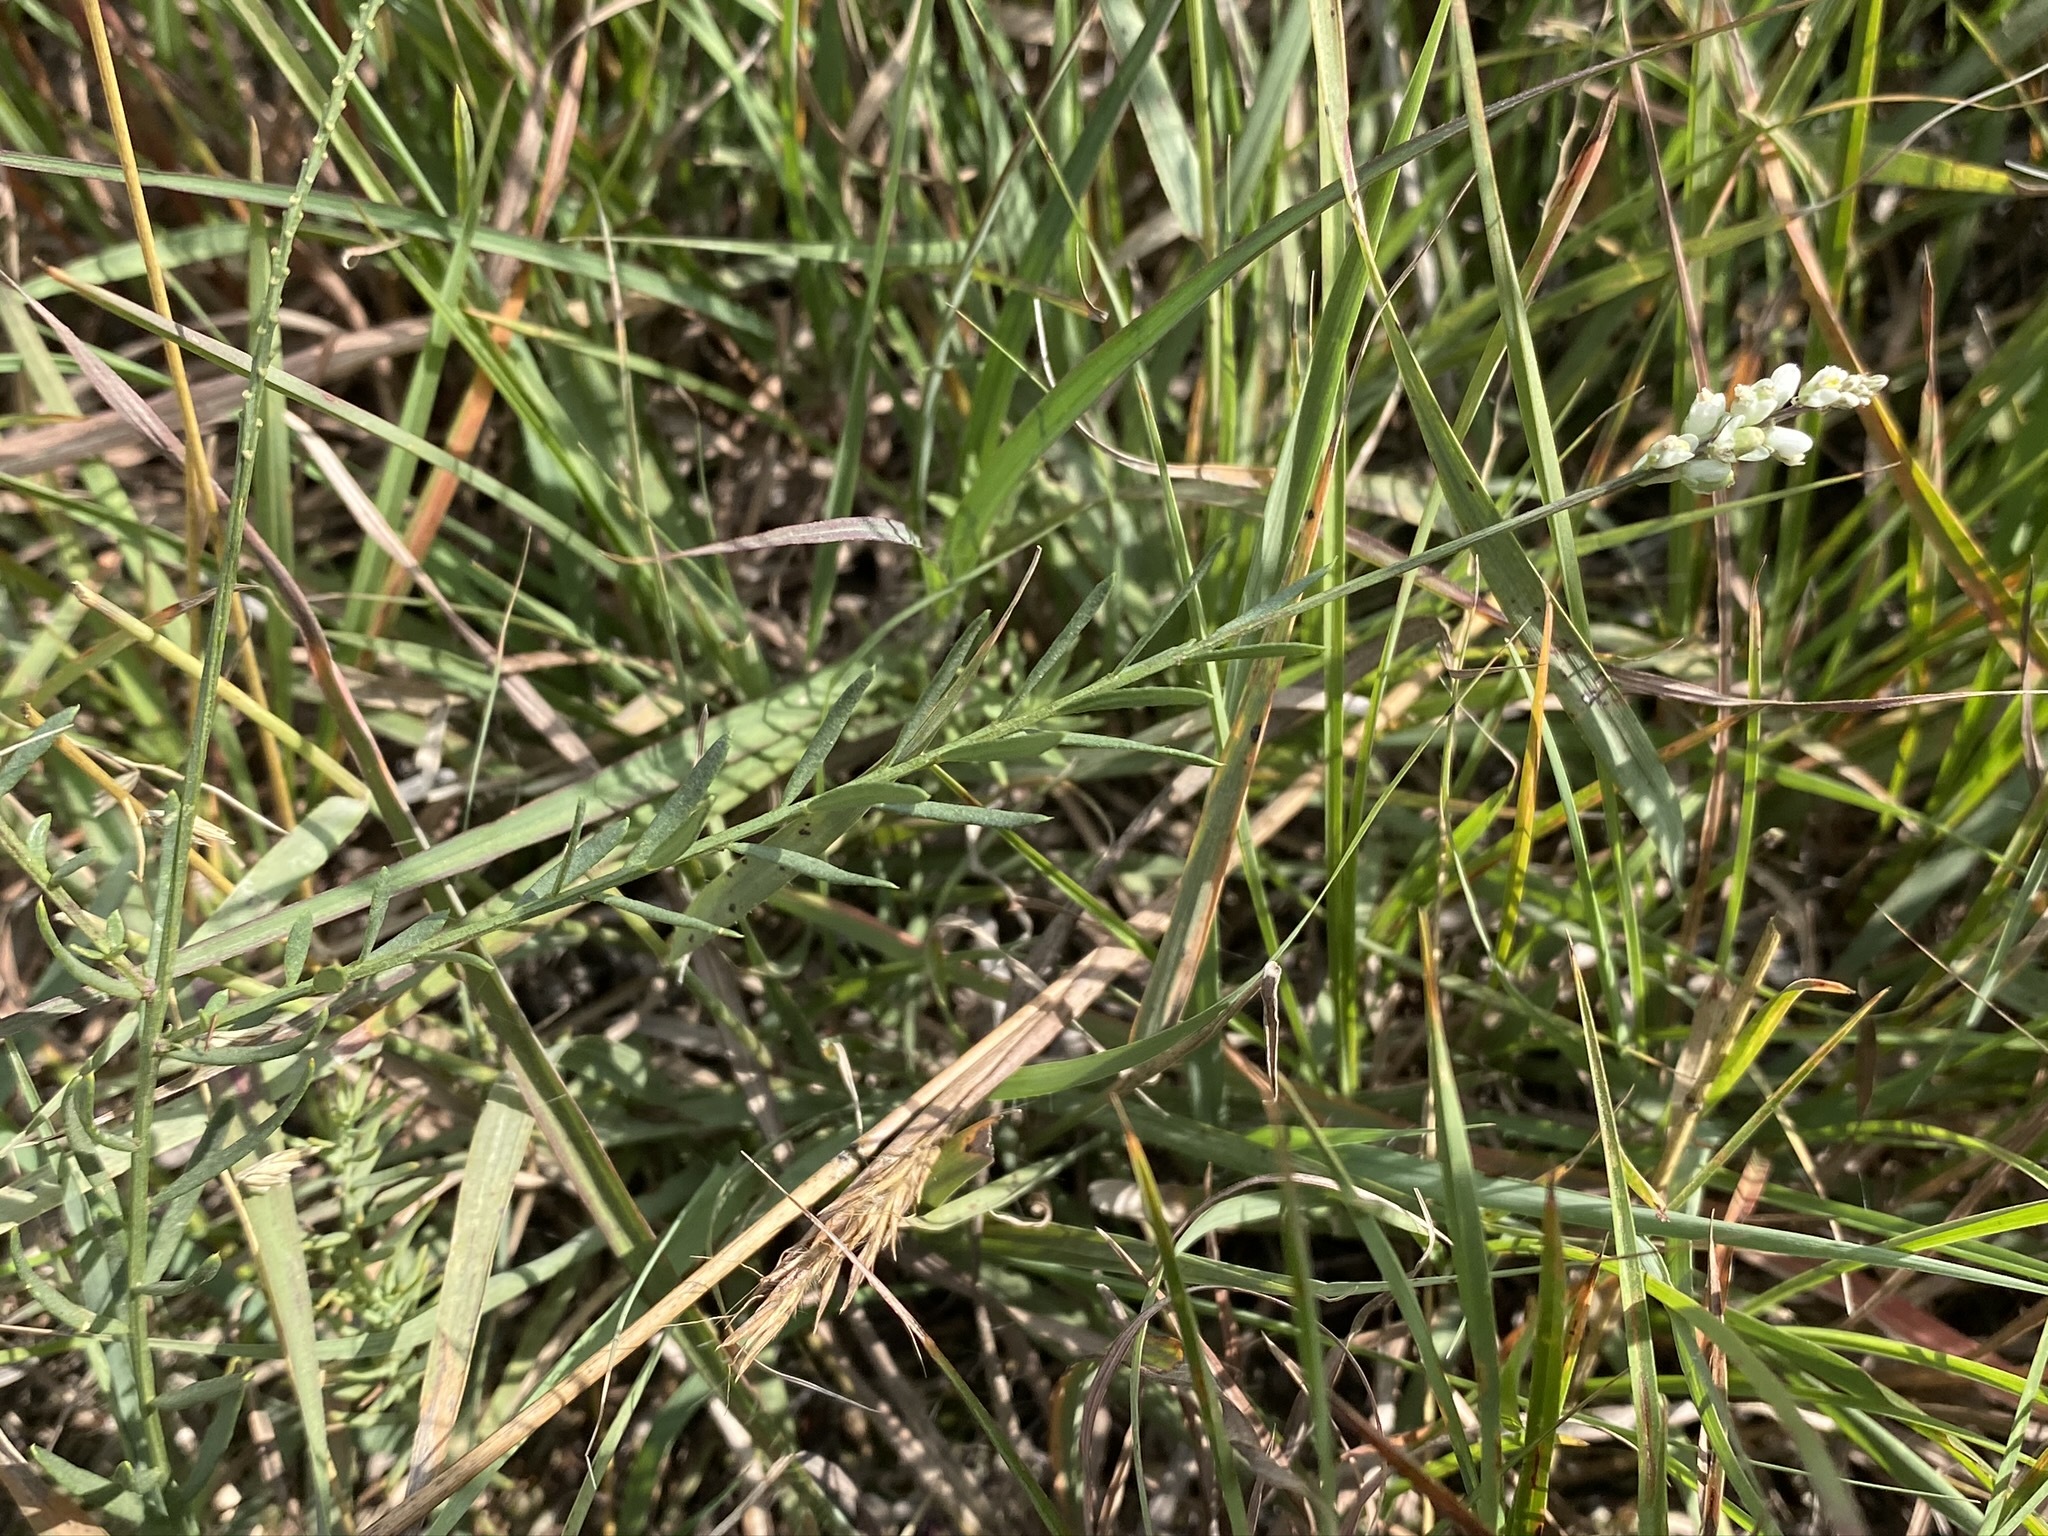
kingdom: Plantae
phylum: Tracheophyta
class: Magnoliopsida
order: Fabales
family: Polygalaceae
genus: Polygala
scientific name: Polygala alba
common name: White milkwort
